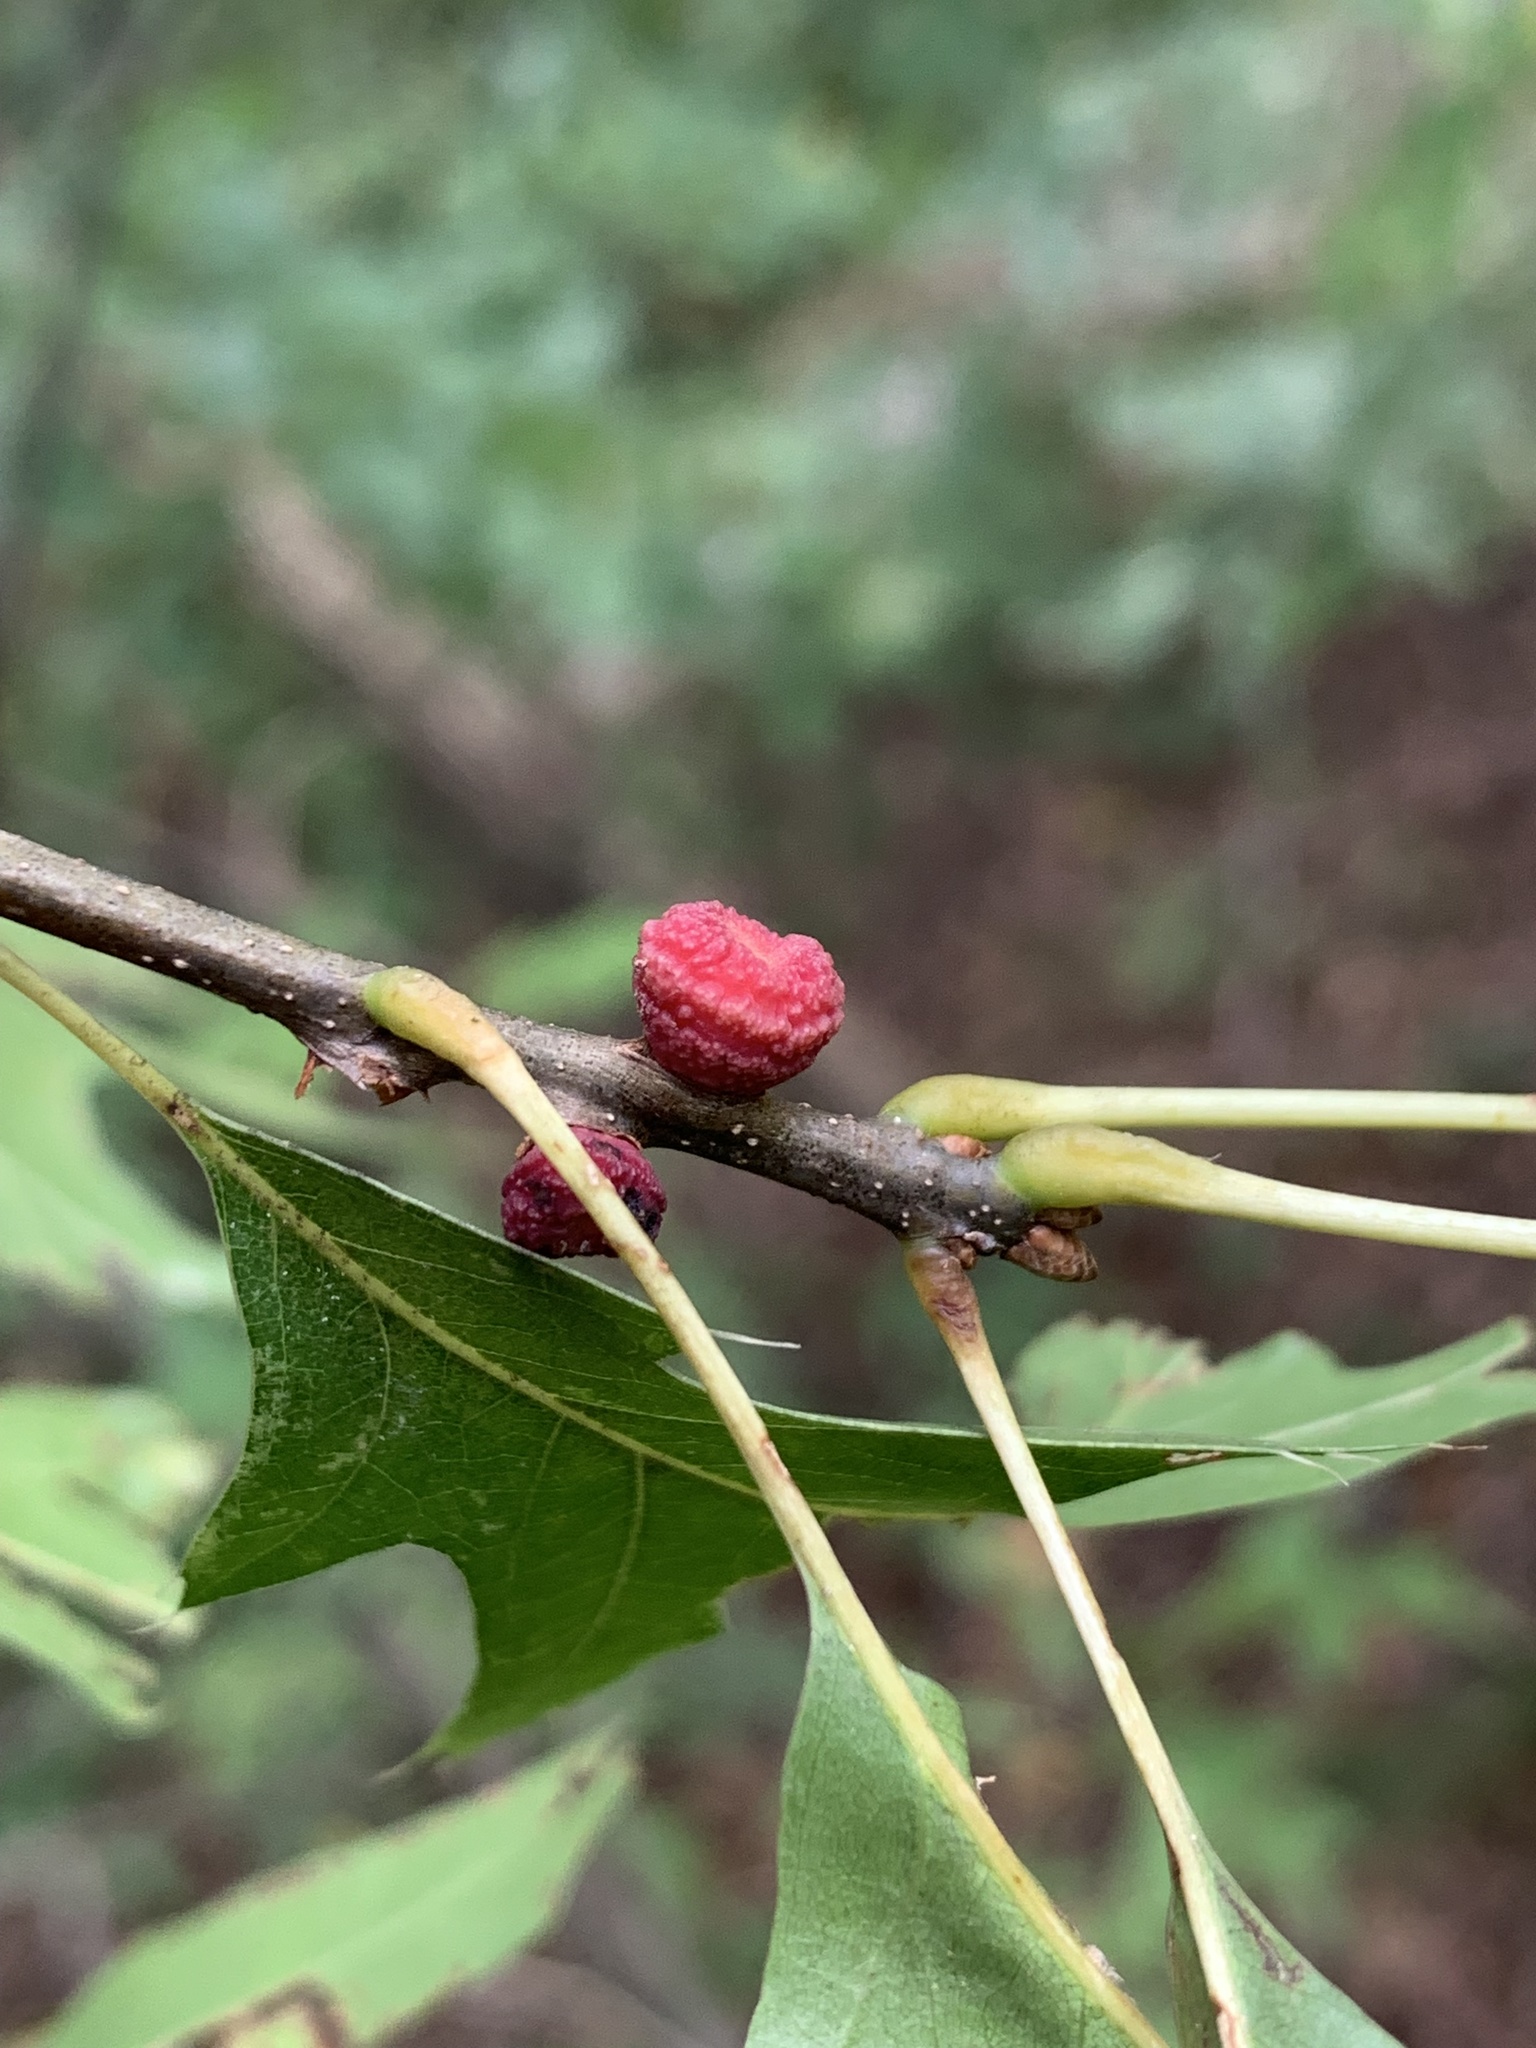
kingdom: Animalia
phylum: Arthropoda
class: Insecta
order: Hymenoptera
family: Cynipidae
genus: Kokkocynips
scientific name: Kokkocynips difficilis
